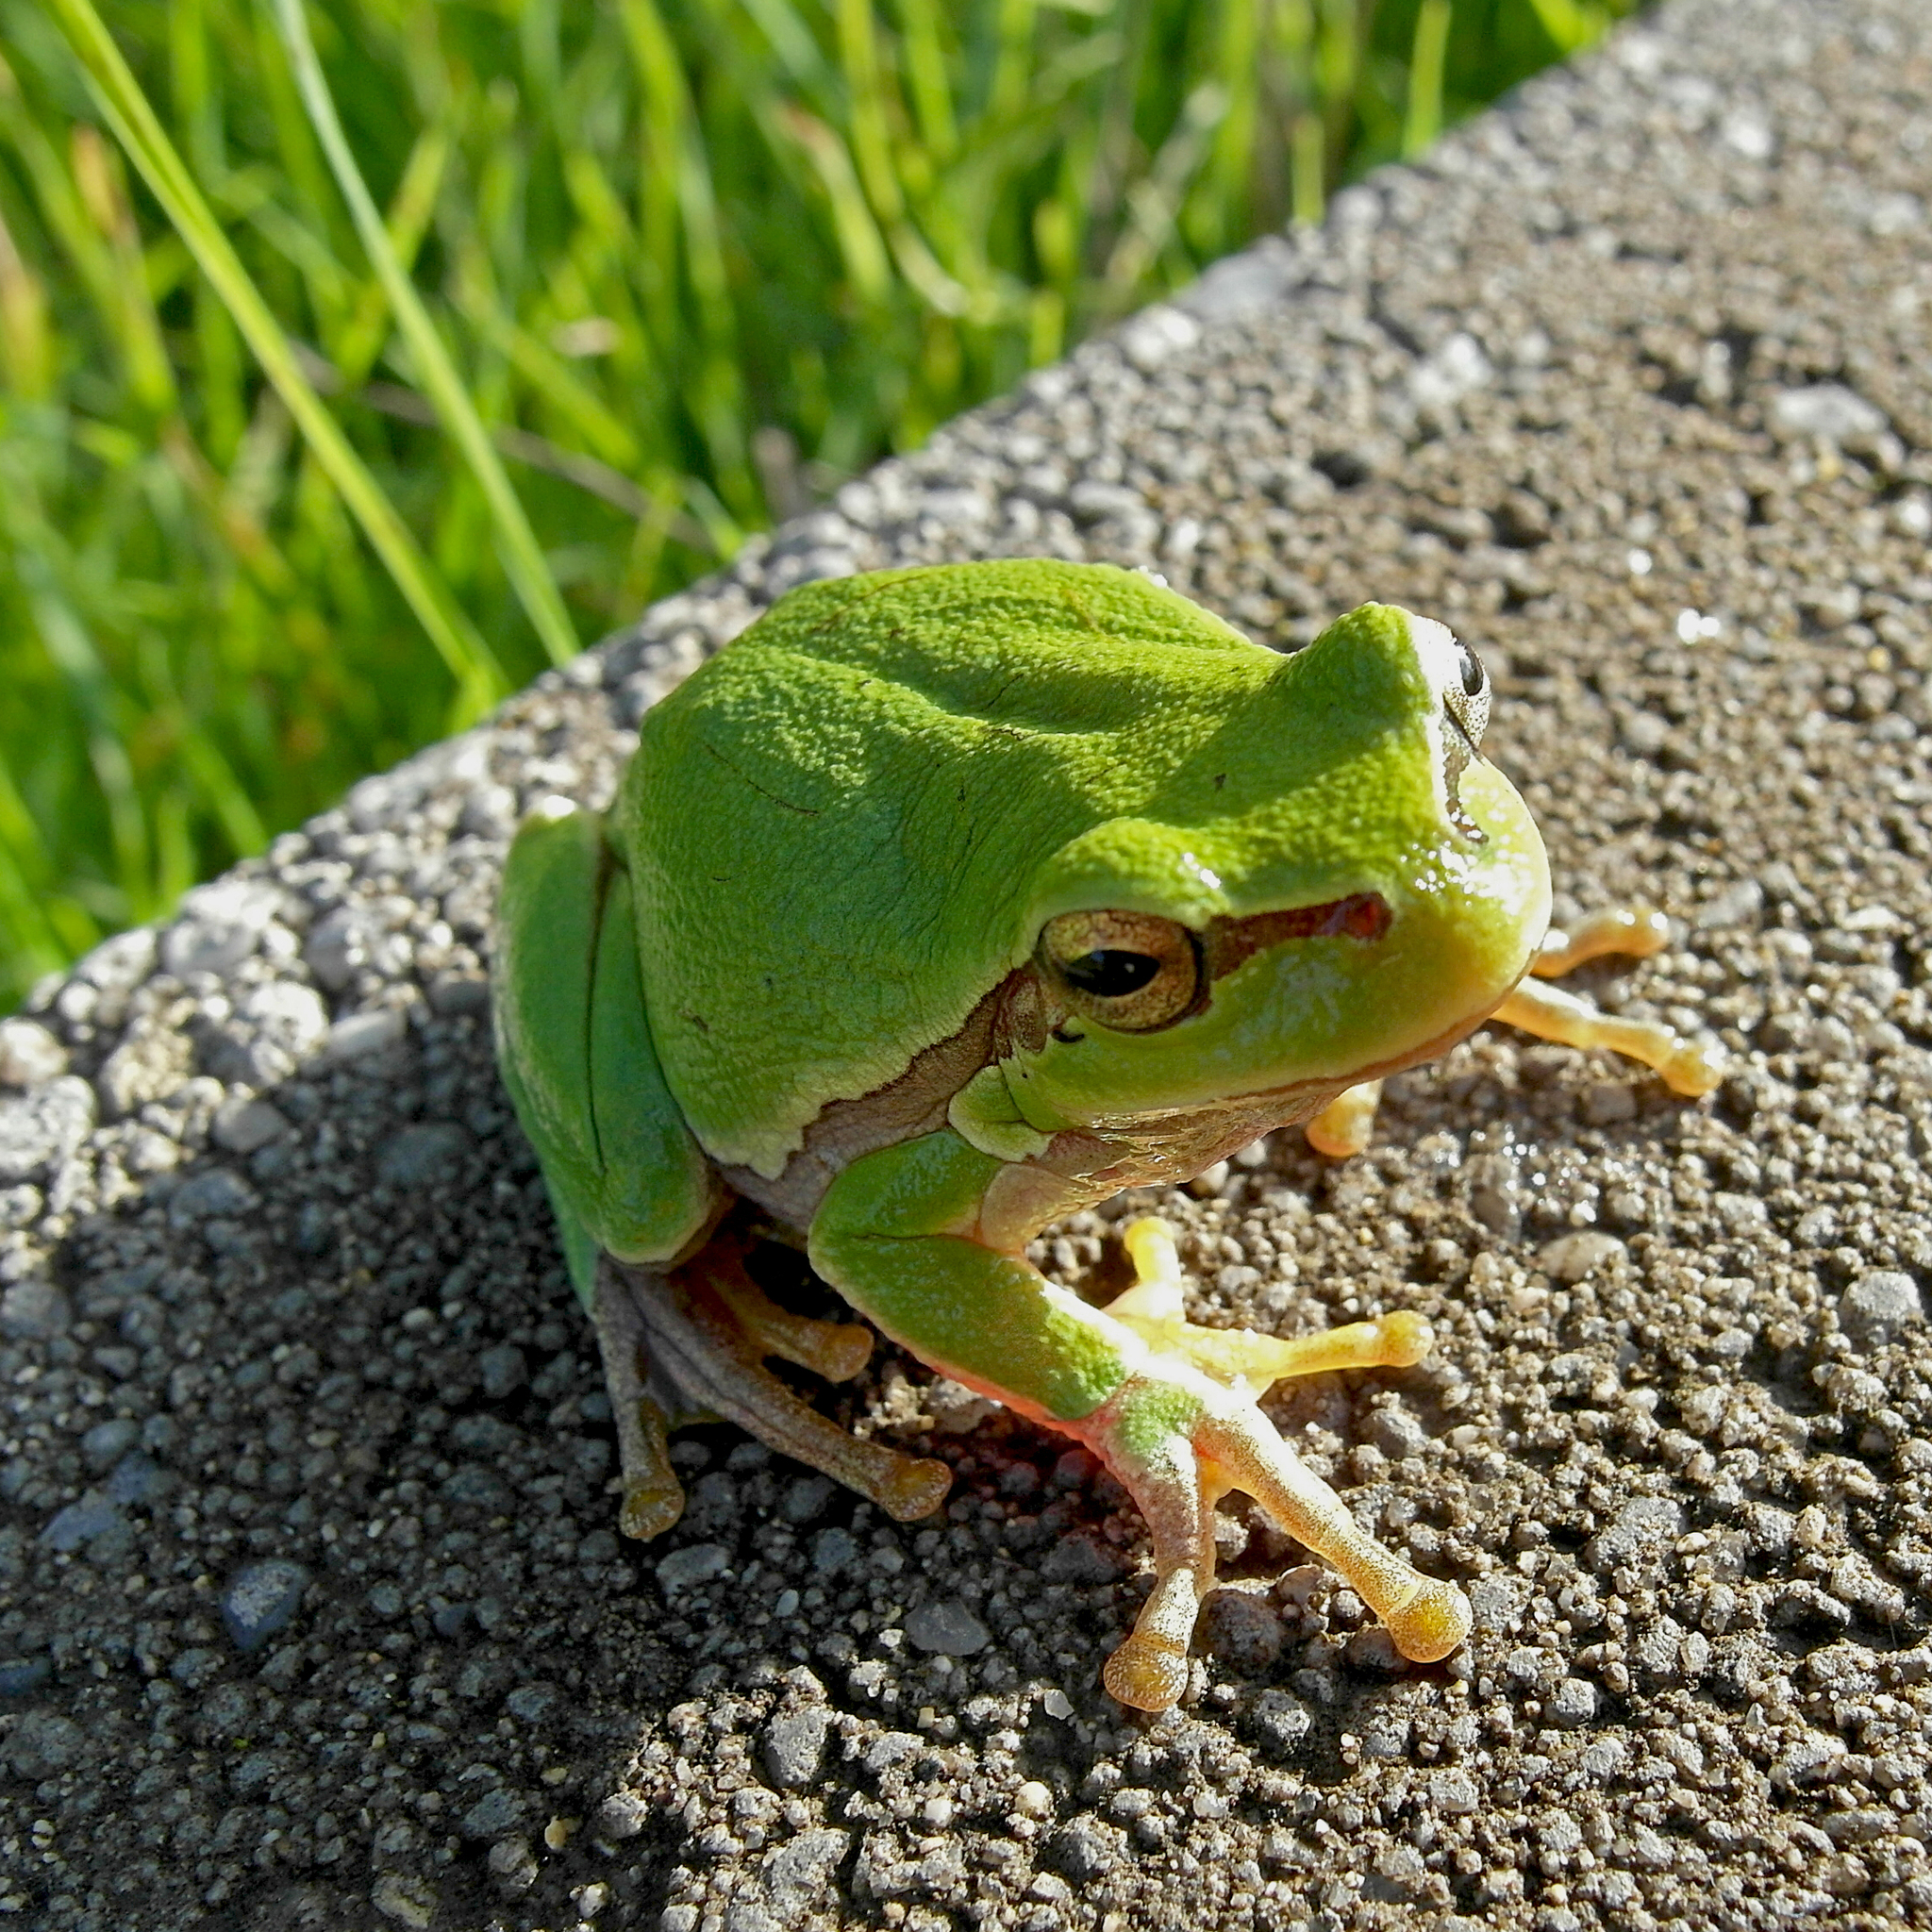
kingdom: Animalia
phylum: Chordata
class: Amphibia
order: Anura
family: Hylidae
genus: Hyla
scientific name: Hyla orientalis
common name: Caucasian treefrog
